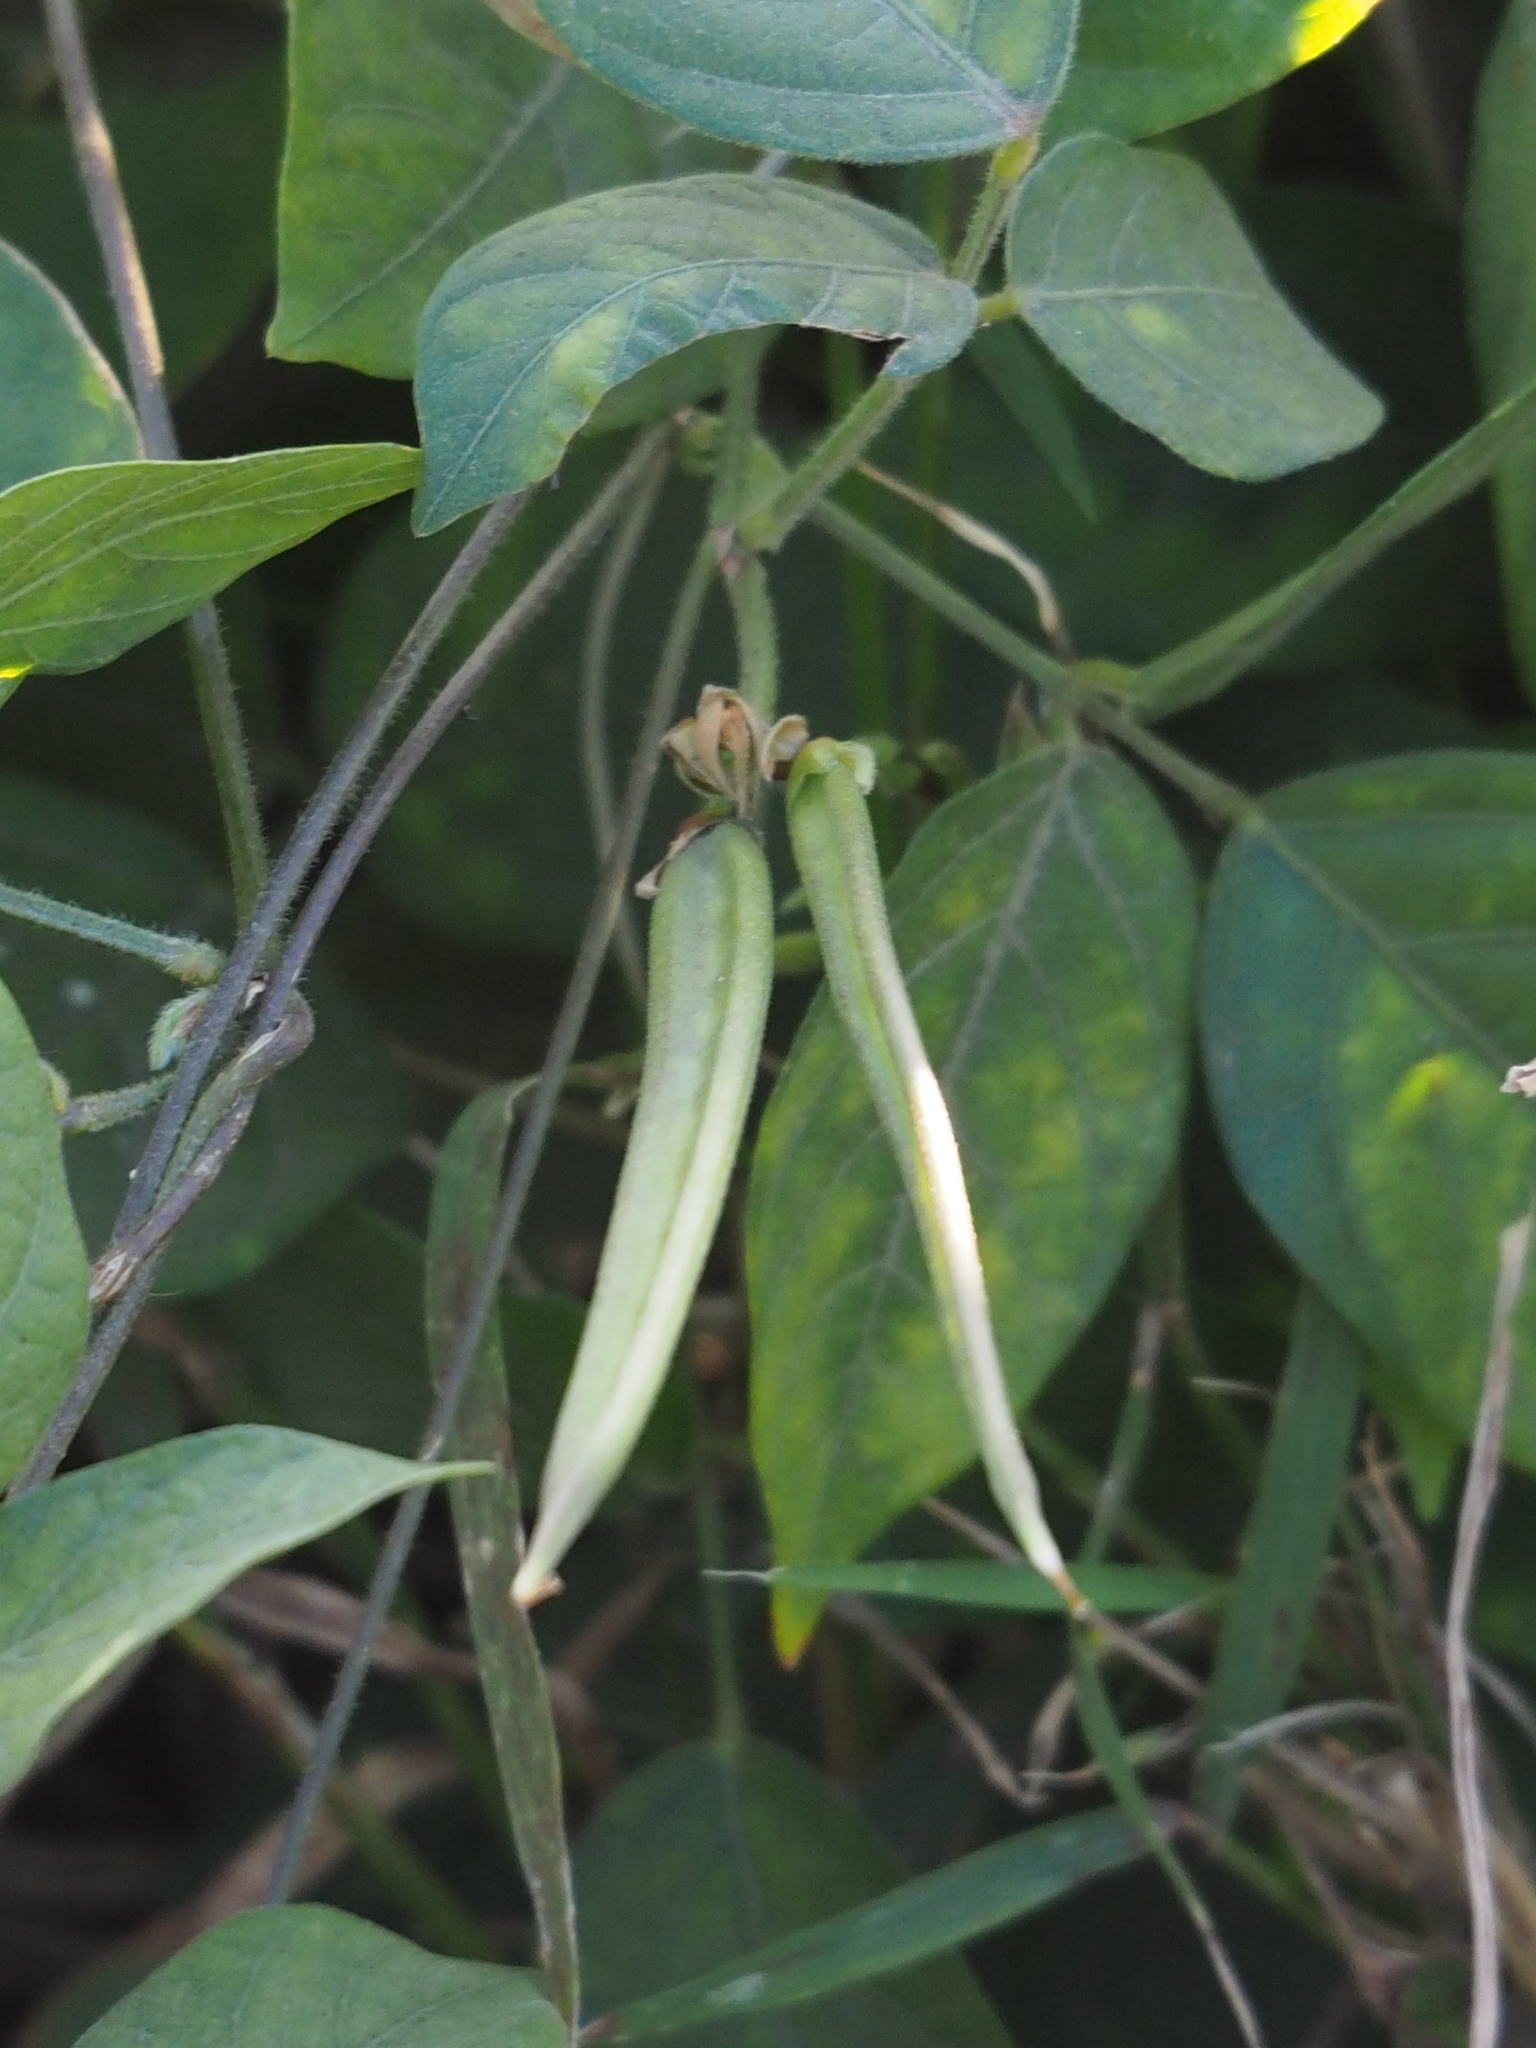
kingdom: Plantae
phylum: Tracheophyta
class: Magnoliopsida
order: Fabales
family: Fabaceae
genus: Centrosema
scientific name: Centrosema pubescens
